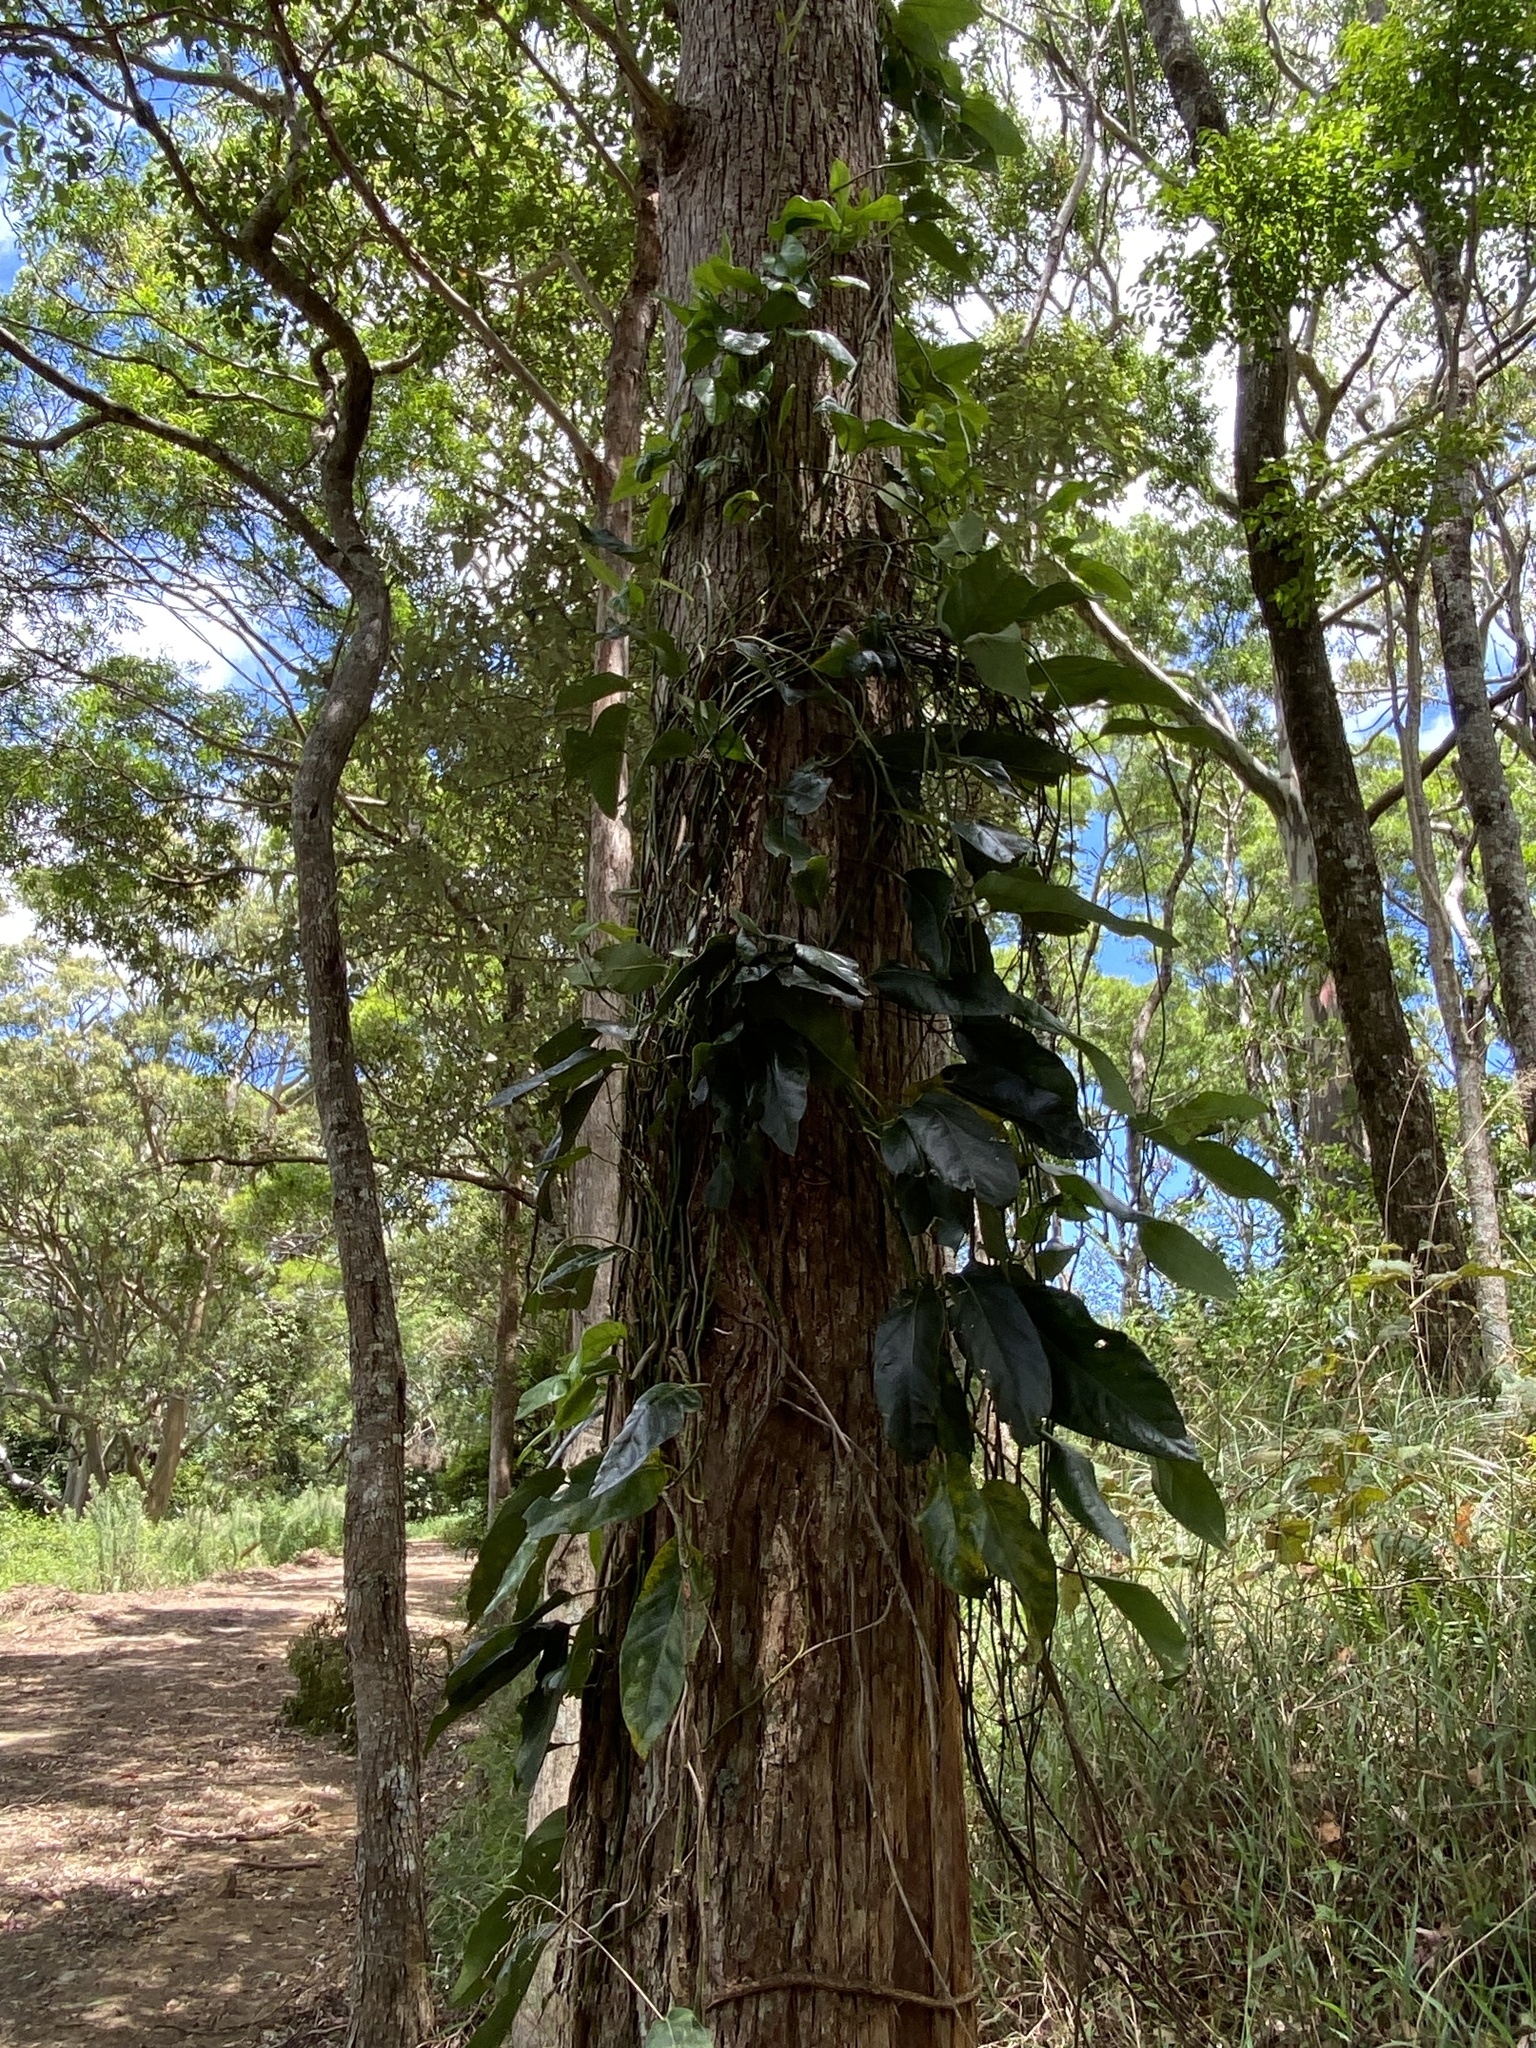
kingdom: Plantae
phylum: Tracheophyta
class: Magnoliopsida
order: Gentianales
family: Apocynaceae
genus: Parsonsia
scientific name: Parsonsia straminea
